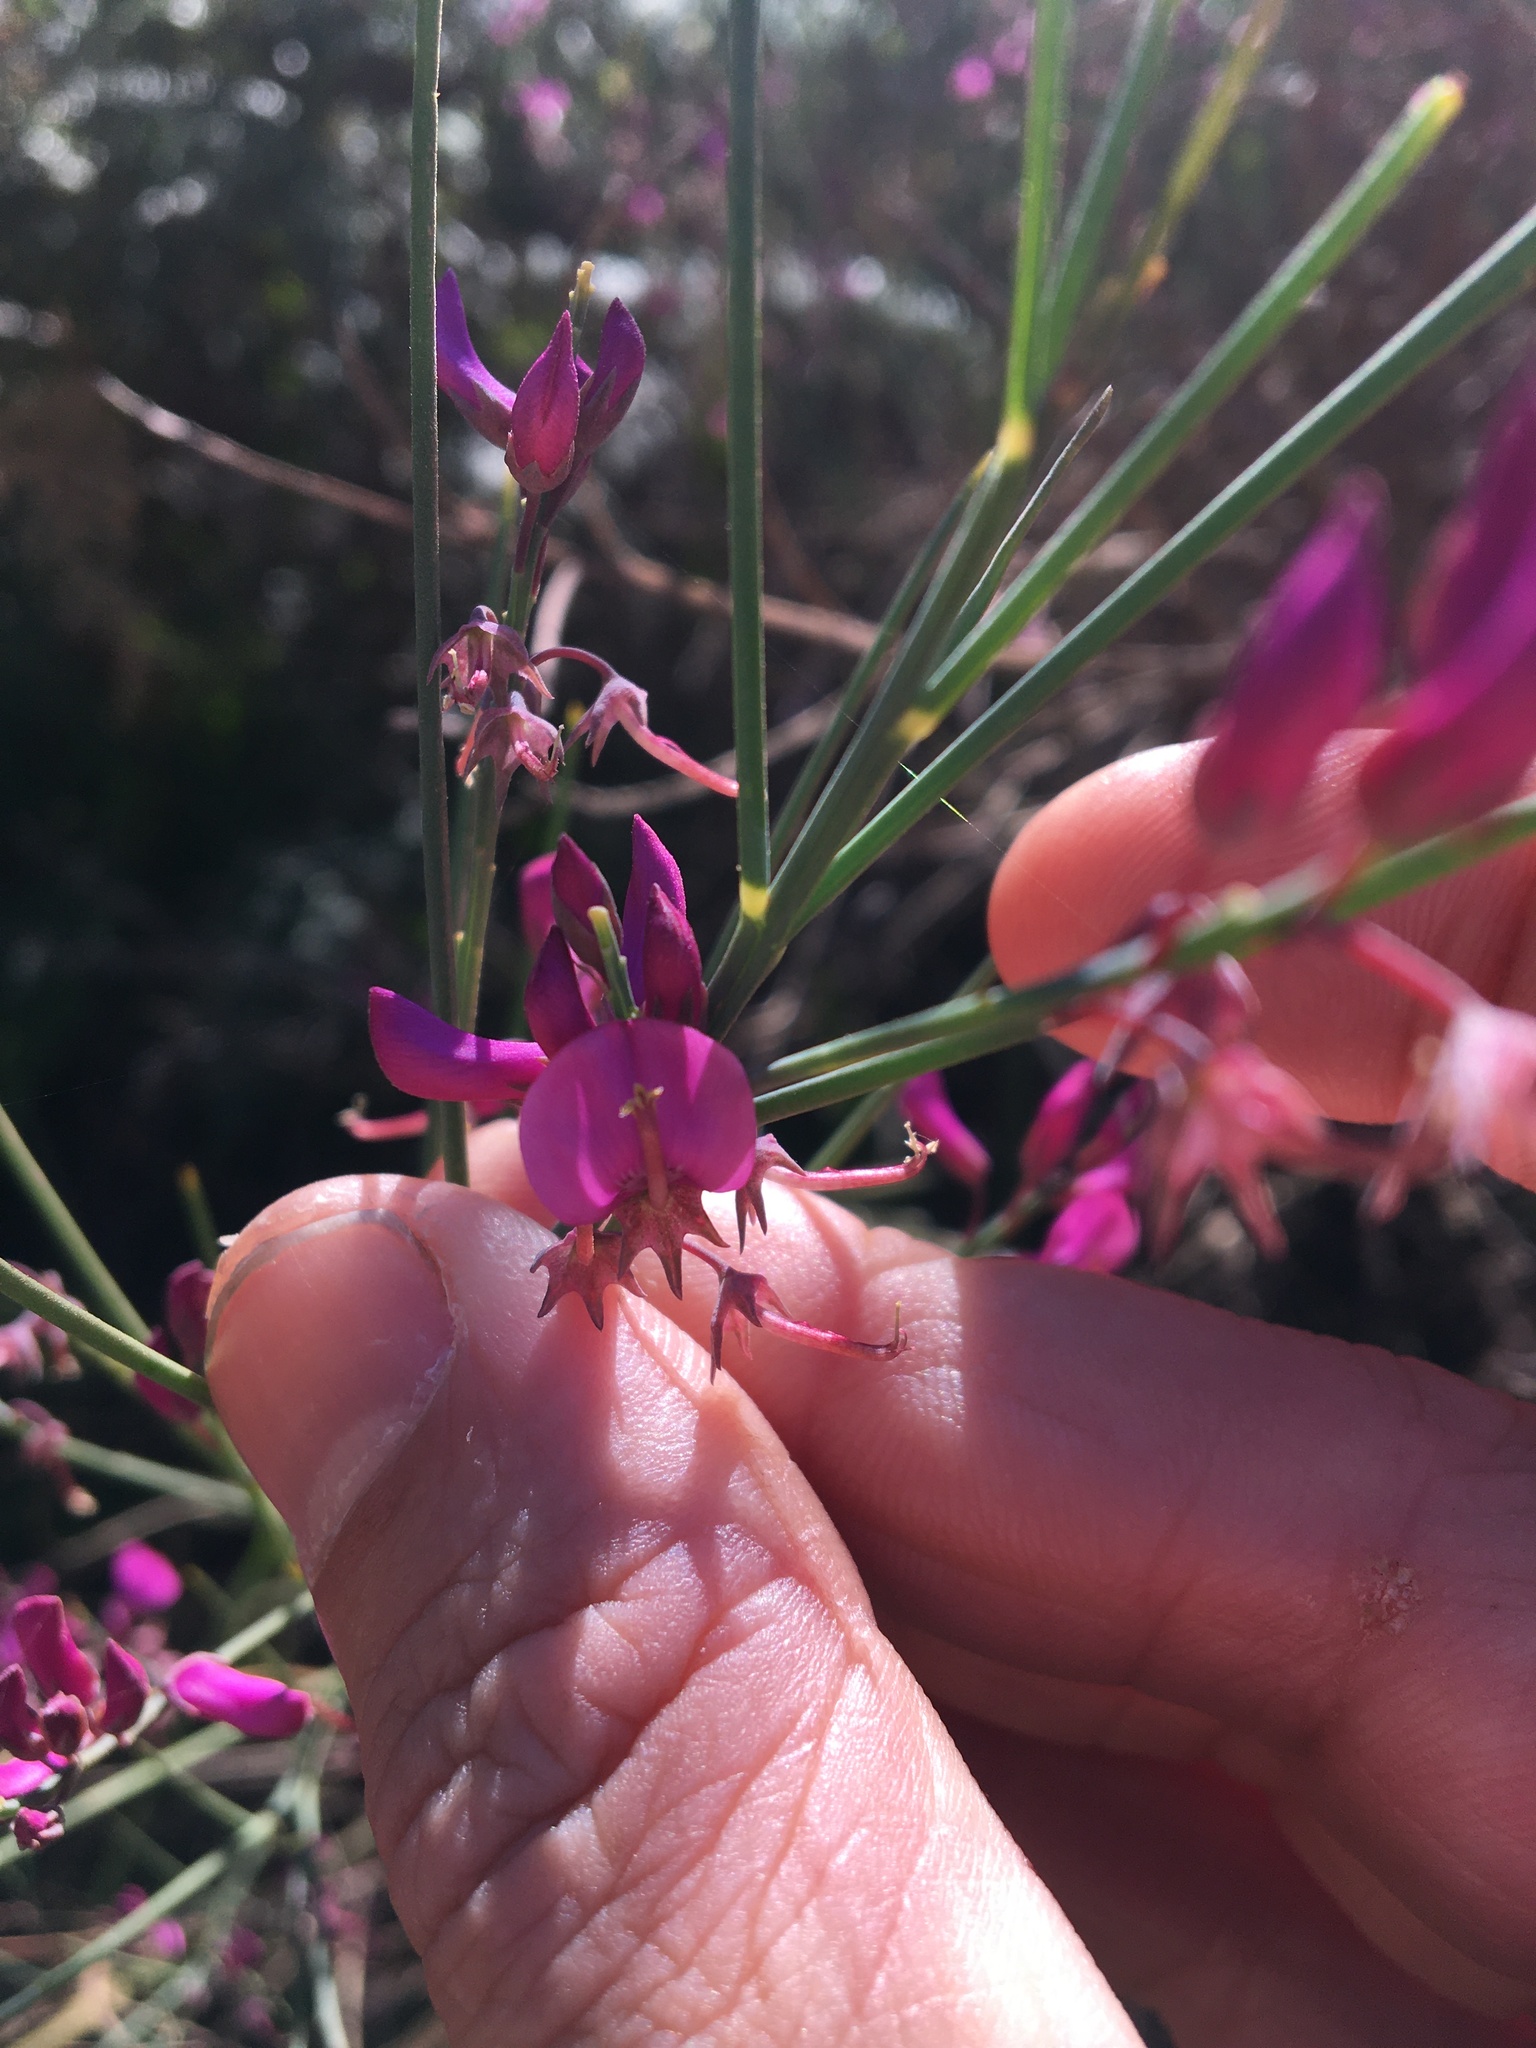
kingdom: Plantae
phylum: Tracheophyta
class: Magnoliopsida
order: Fabales
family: Fabaceae
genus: Indigofera
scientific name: Indigofera filifolia
